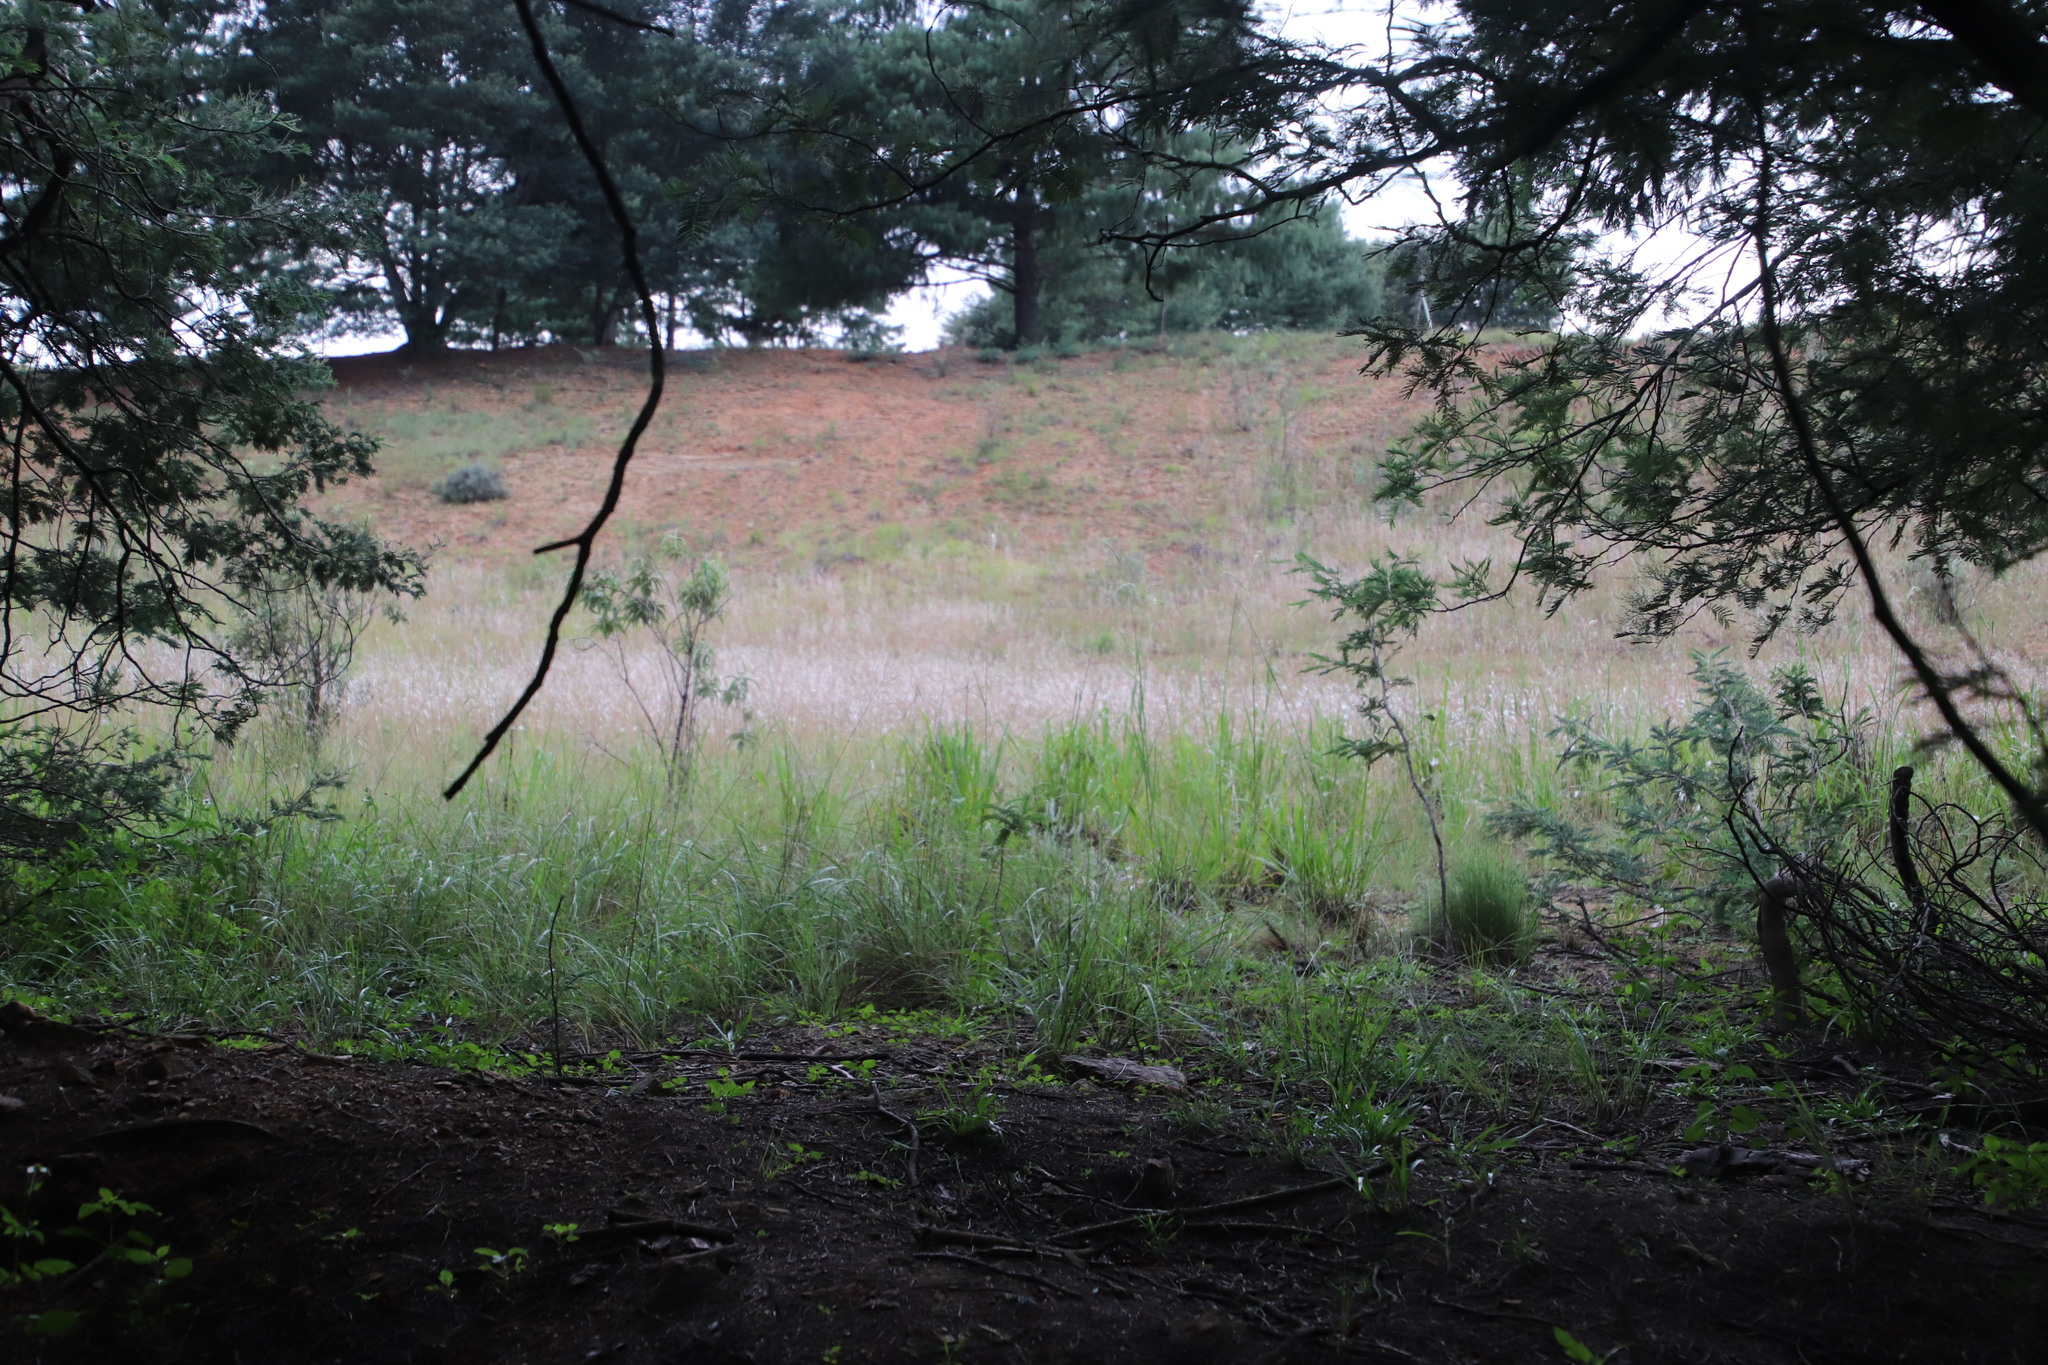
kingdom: Plantae
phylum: Tracheophyta
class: Liliopsida
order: Poales
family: Poaceae
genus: Andropogon
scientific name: Andropogon eucomus
